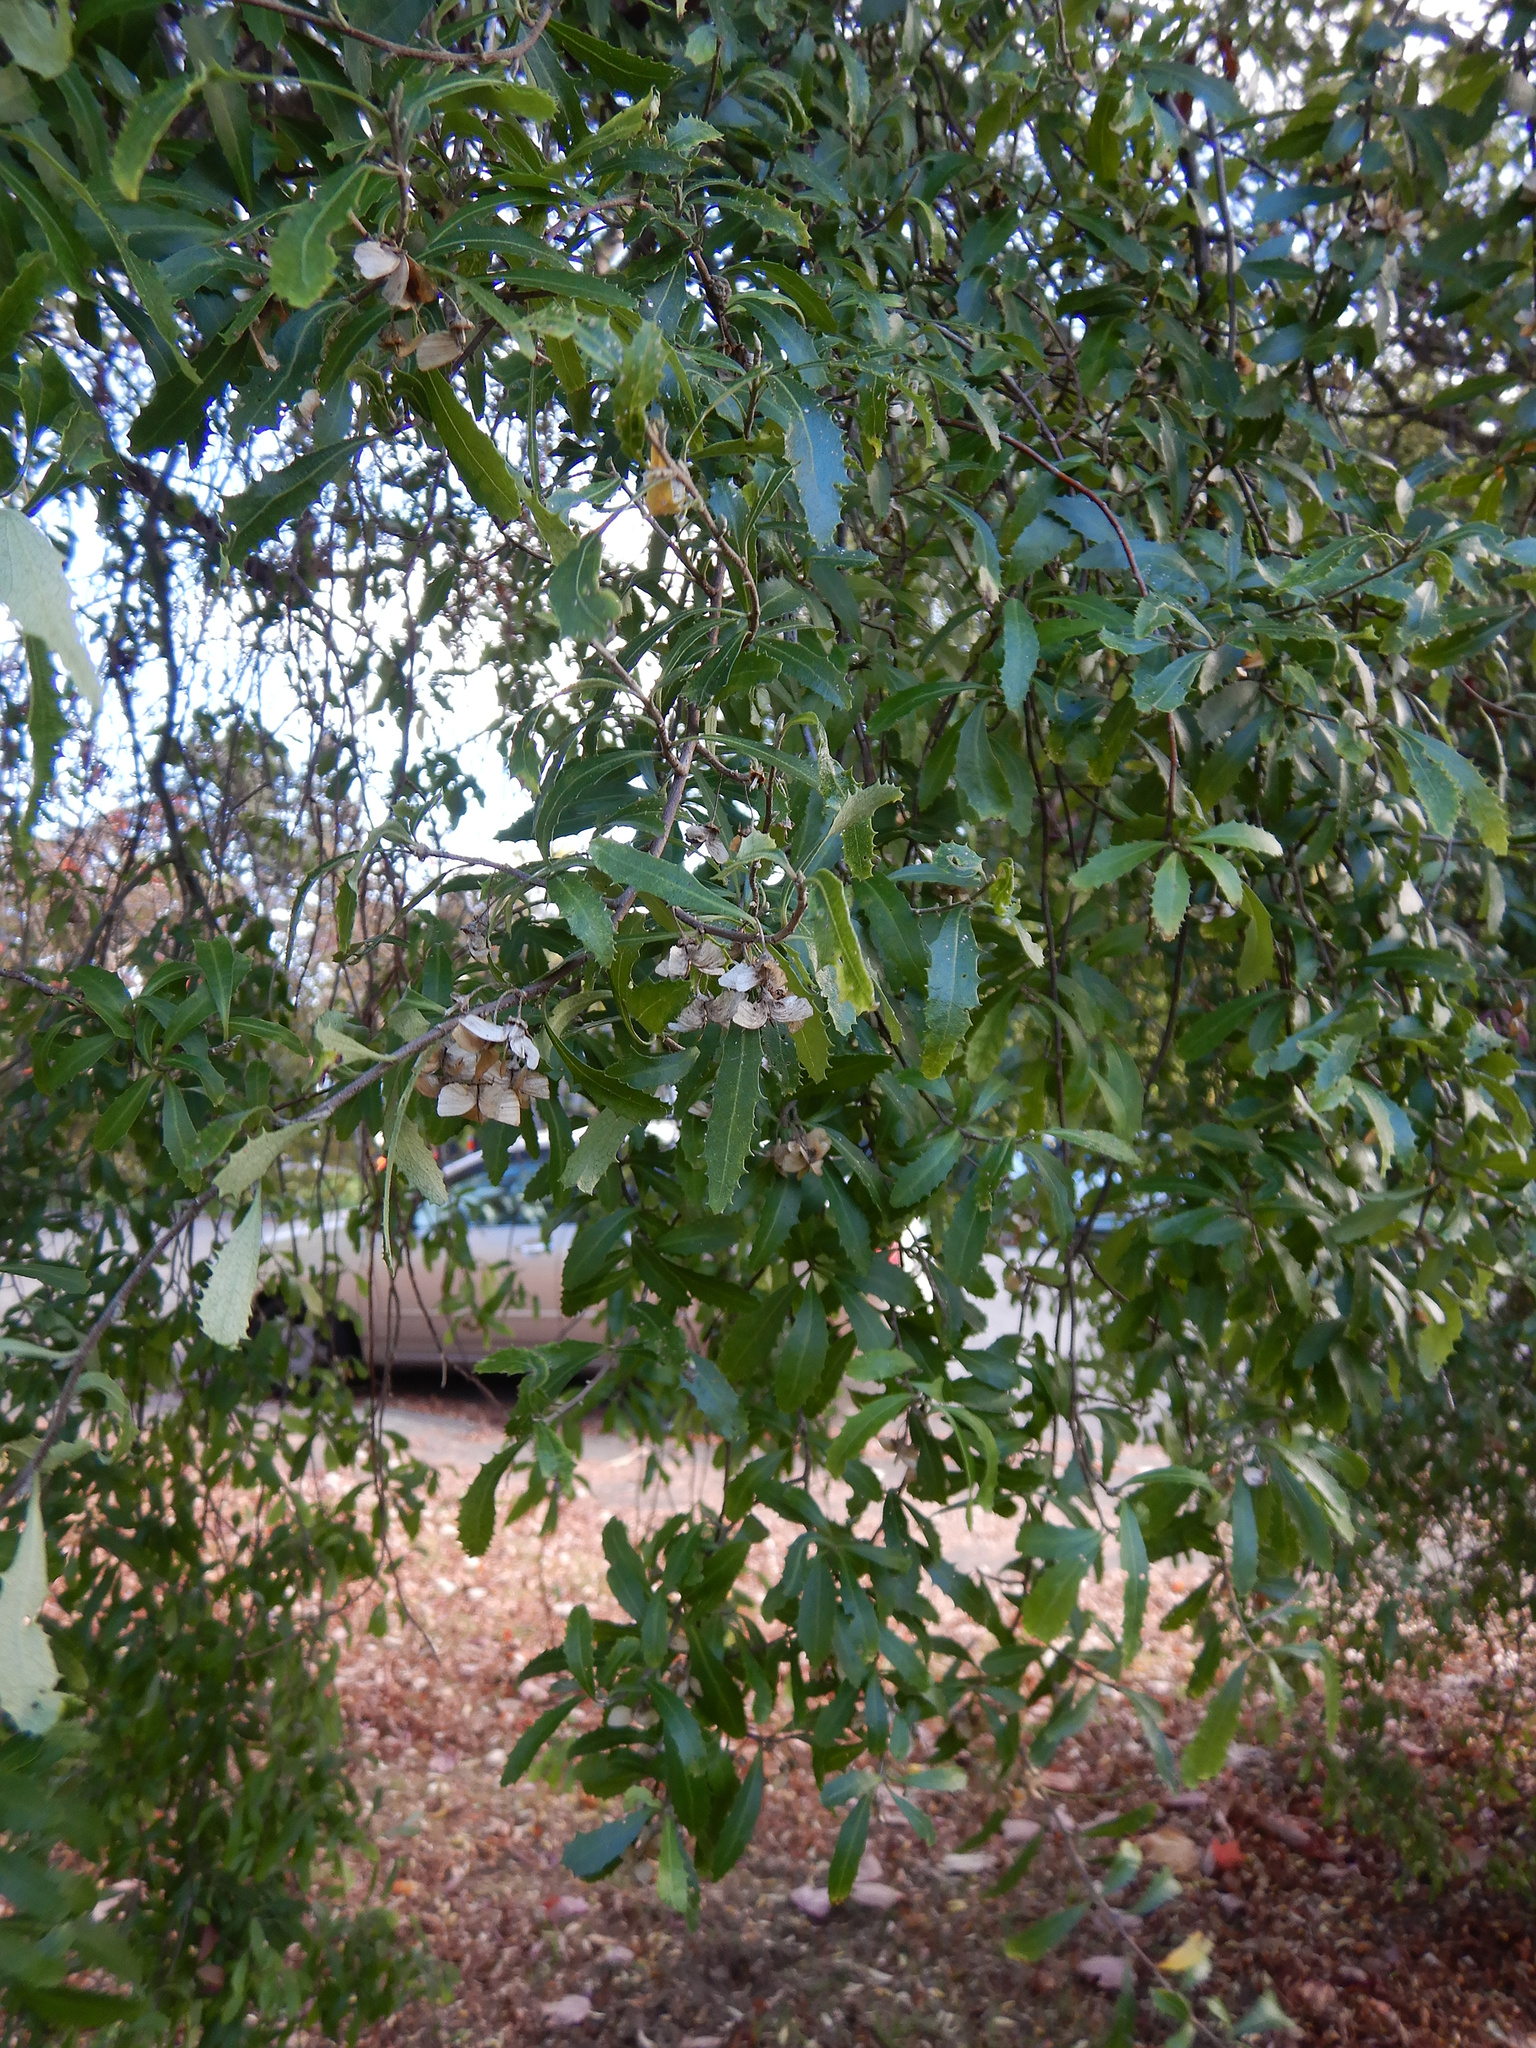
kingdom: Plantae
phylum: Tracheophyta
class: Magnoliopsida
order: Malvales
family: Malvaceae
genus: Hoheria
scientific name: Hoheria angustifolia
